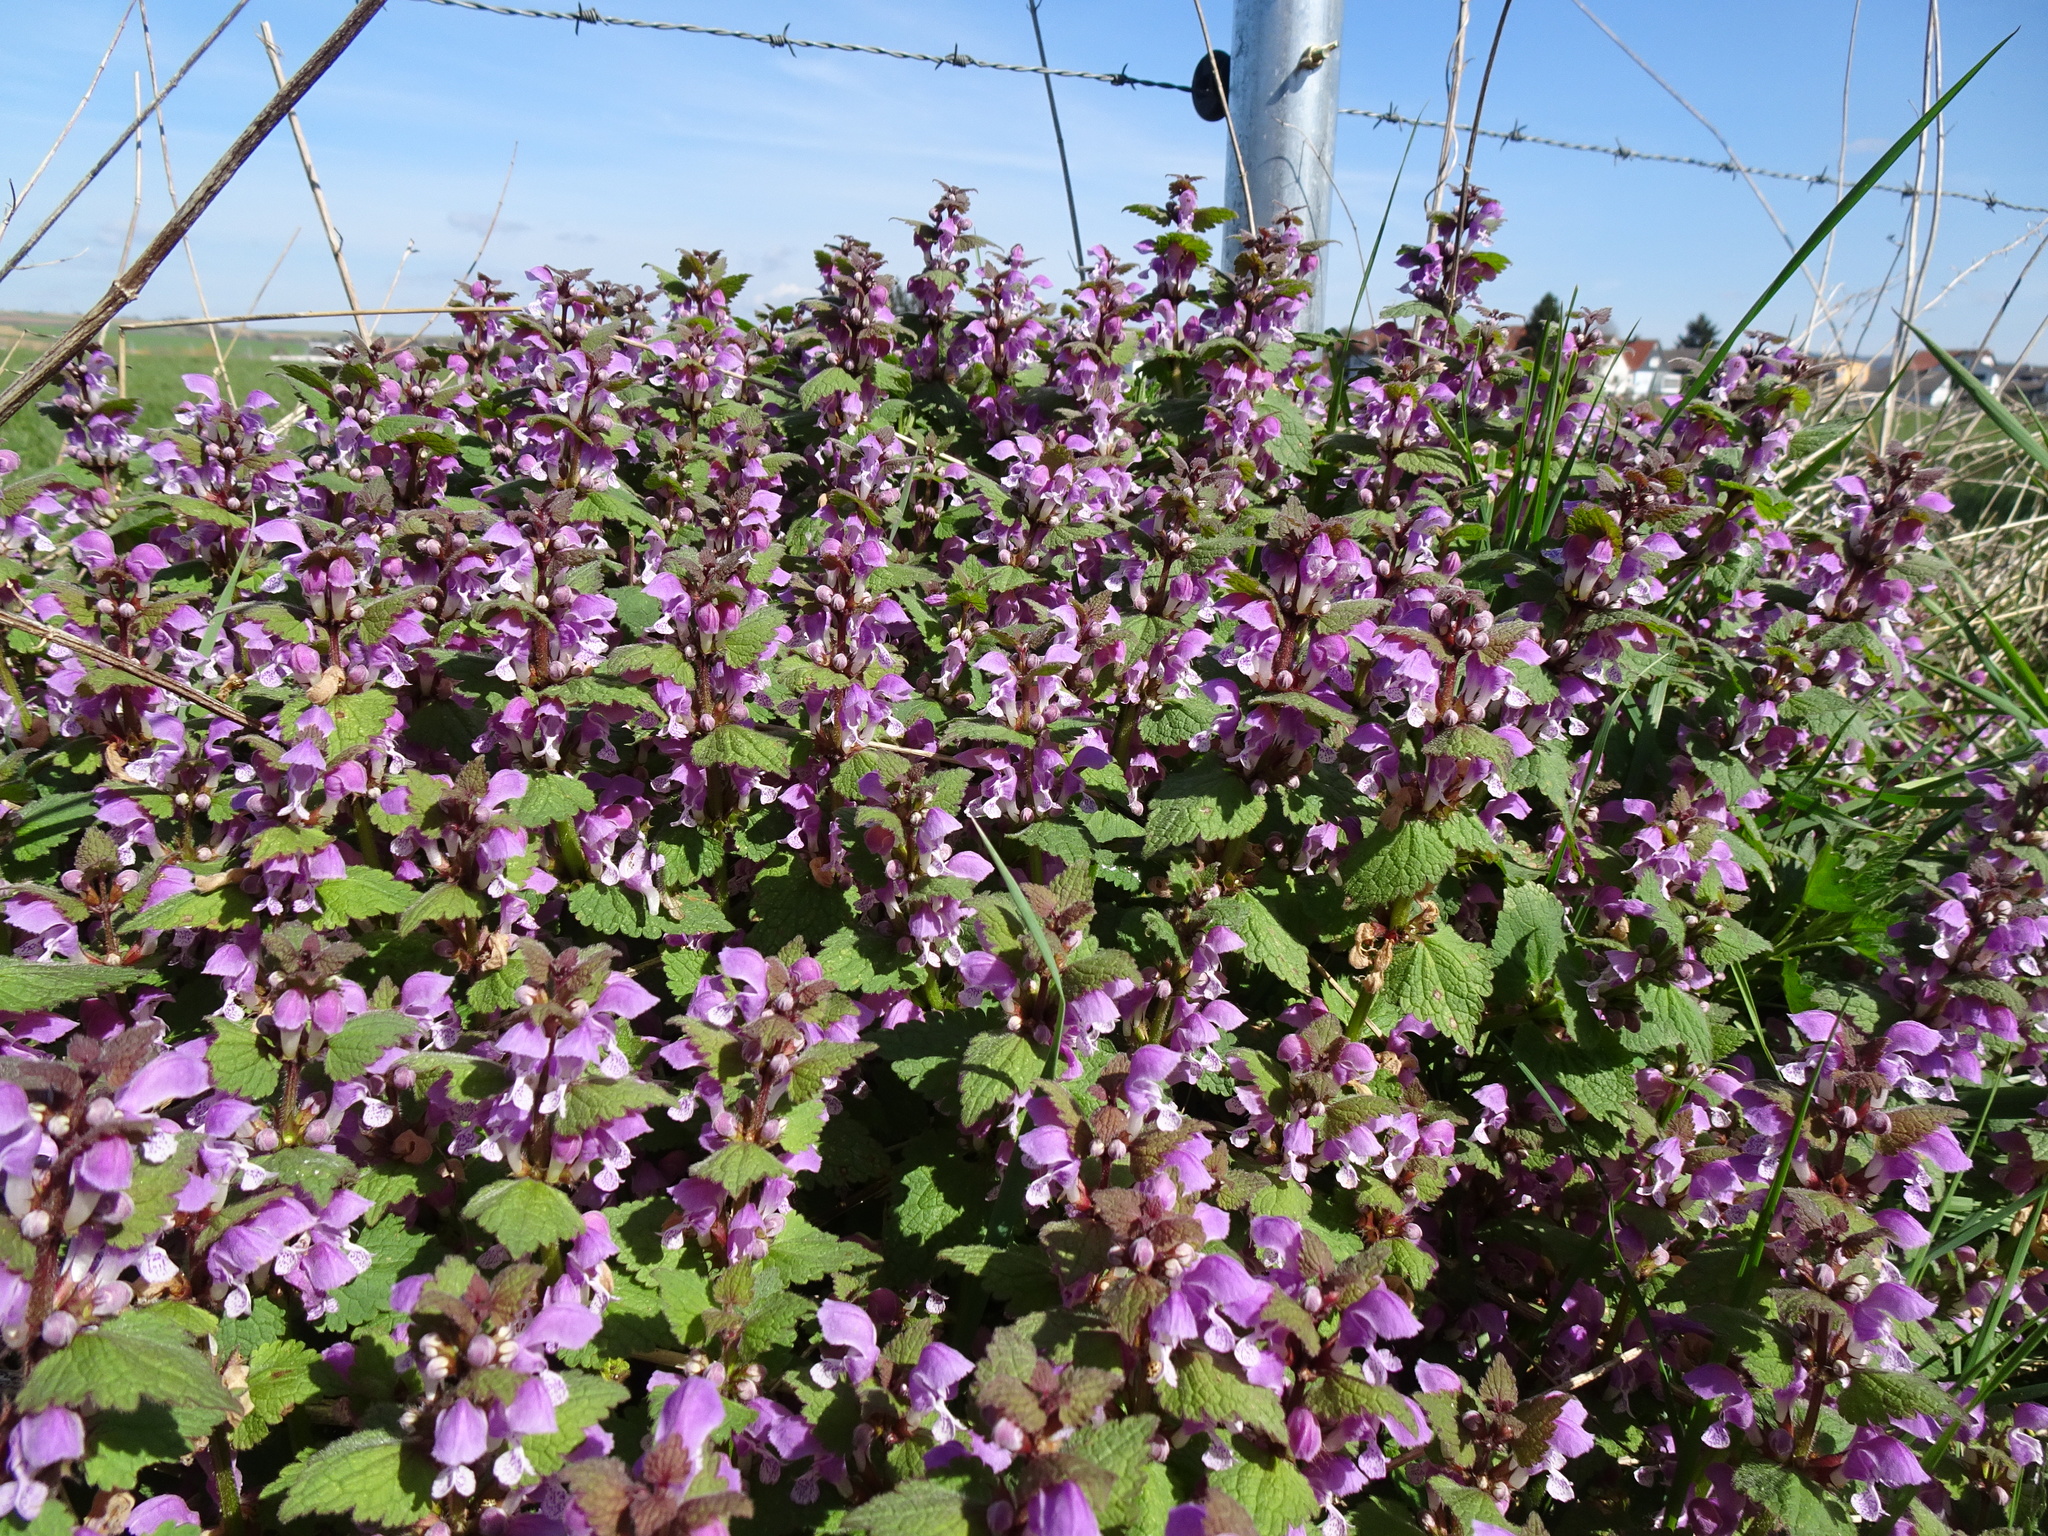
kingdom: Plantae
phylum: Tracheophyta
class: Magnoliopsida
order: Lamiales
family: Lamiaceae
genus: Lamium
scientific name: Lamium maculatum
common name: Spotted dead-nettle
